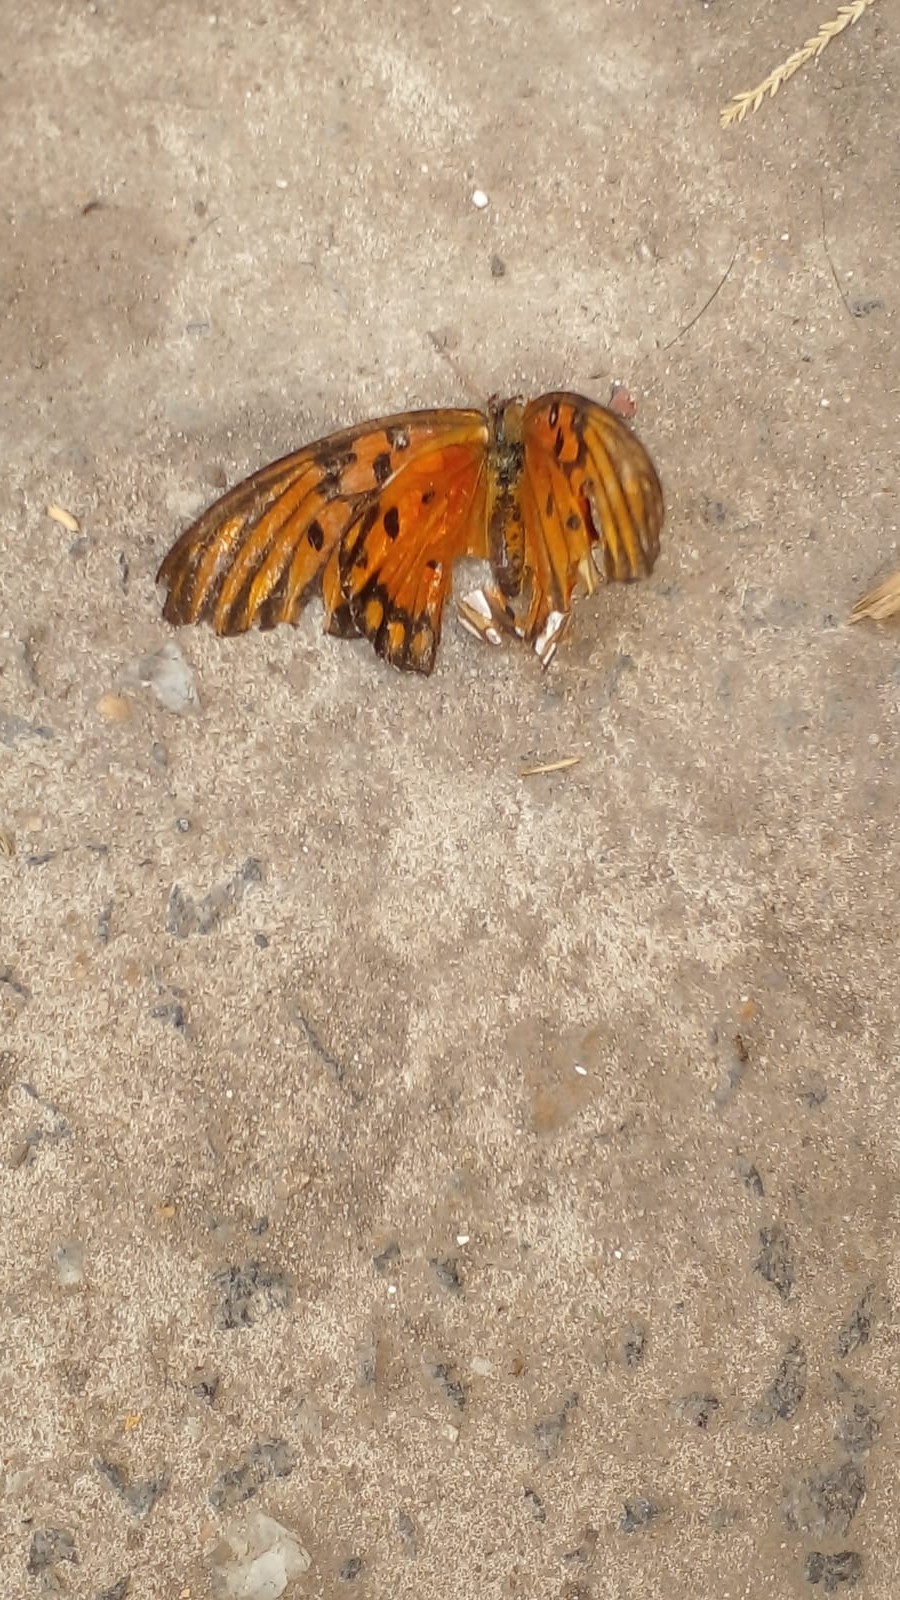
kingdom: Animalia
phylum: Arthropoda
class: Insecta
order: Lepidoptera
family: Nymphalidae
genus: Dione
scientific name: Dione vanillae
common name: Gulf fritillary
